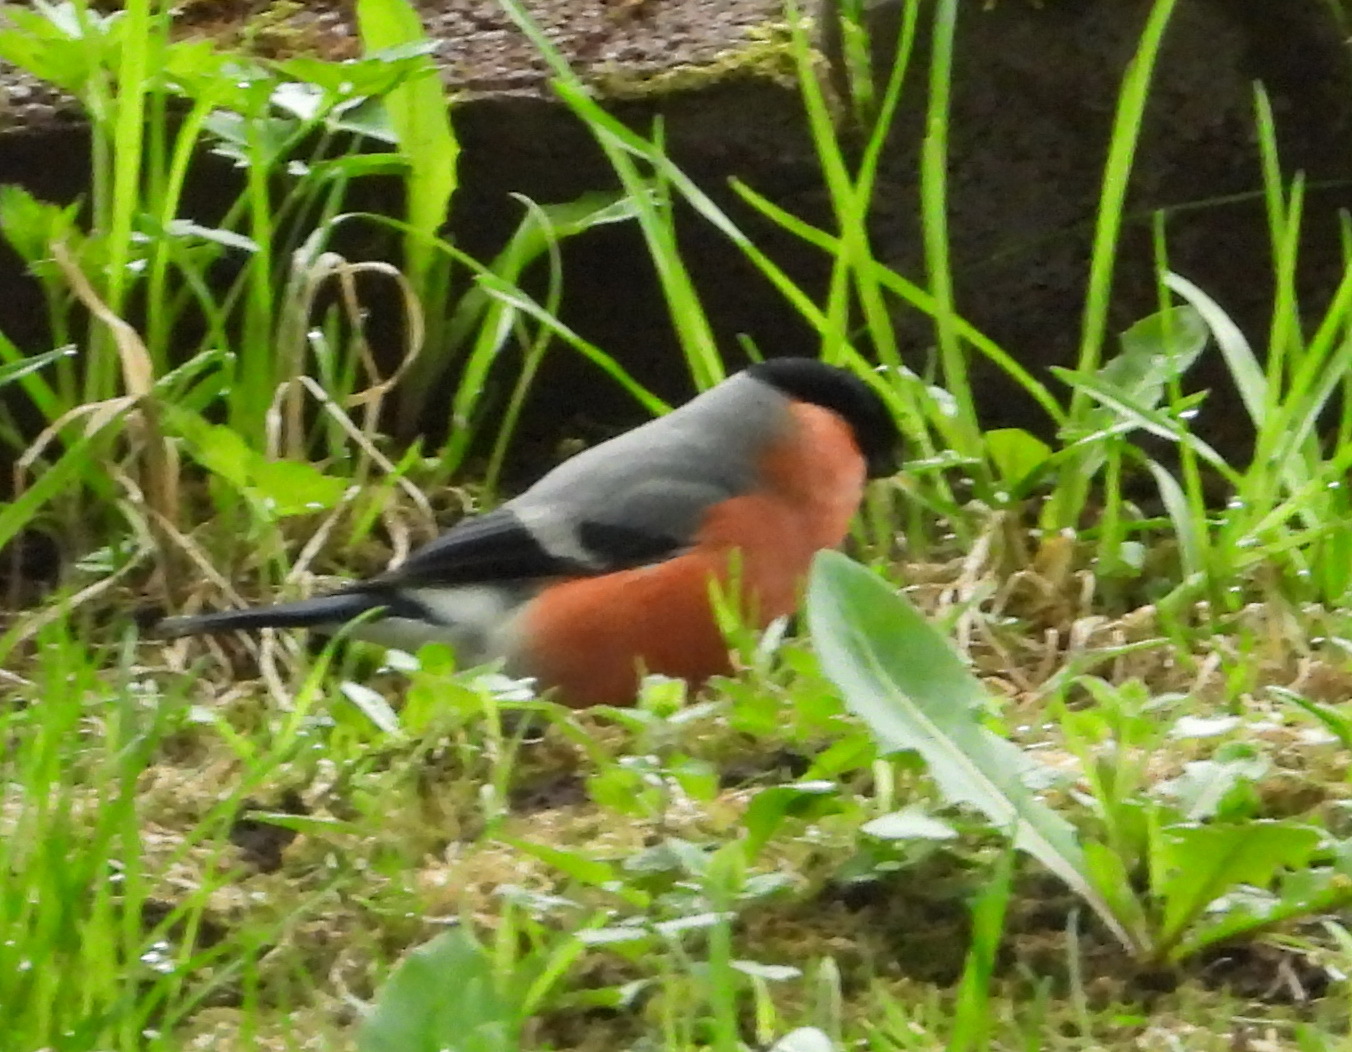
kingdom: Animalia
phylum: Chordata
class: Aves
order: Passeriformes
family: Fringillidae
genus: Pyrrhula
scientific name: Pyrrhula pyrrhula
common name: Eurasian bullfinch
